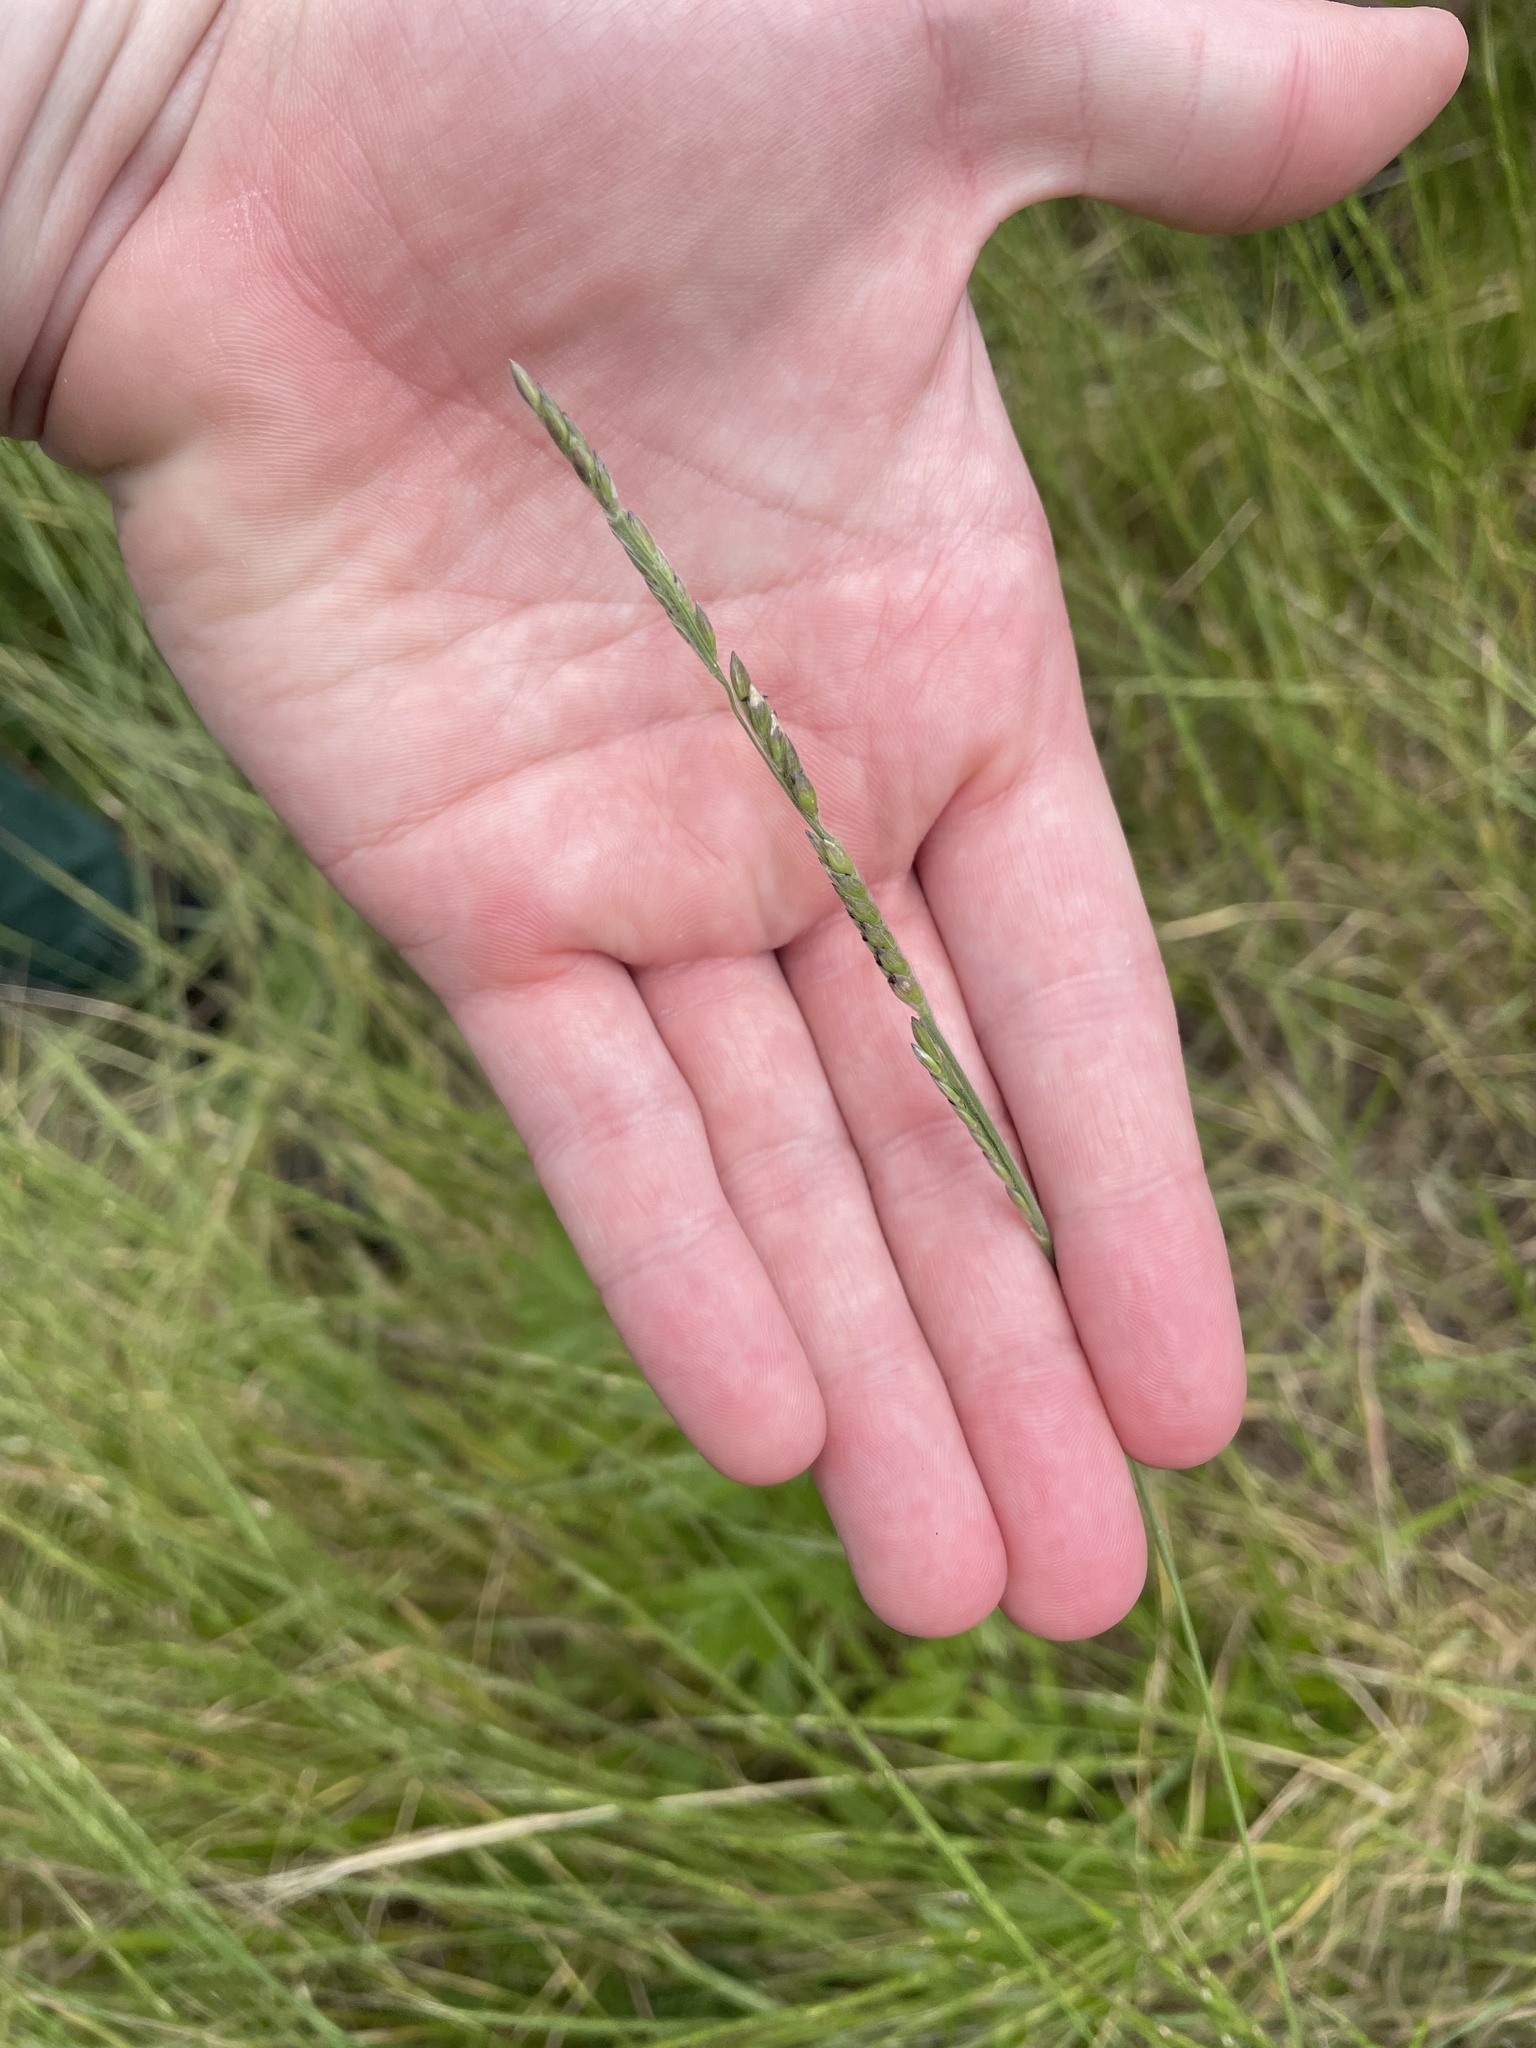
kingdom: Plantae
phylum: Tracheophyta
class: Liliopsida
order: Poales
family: Poaceae
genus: Eriochloa
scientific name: Eriochloa sericea
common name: Texas cup grass
